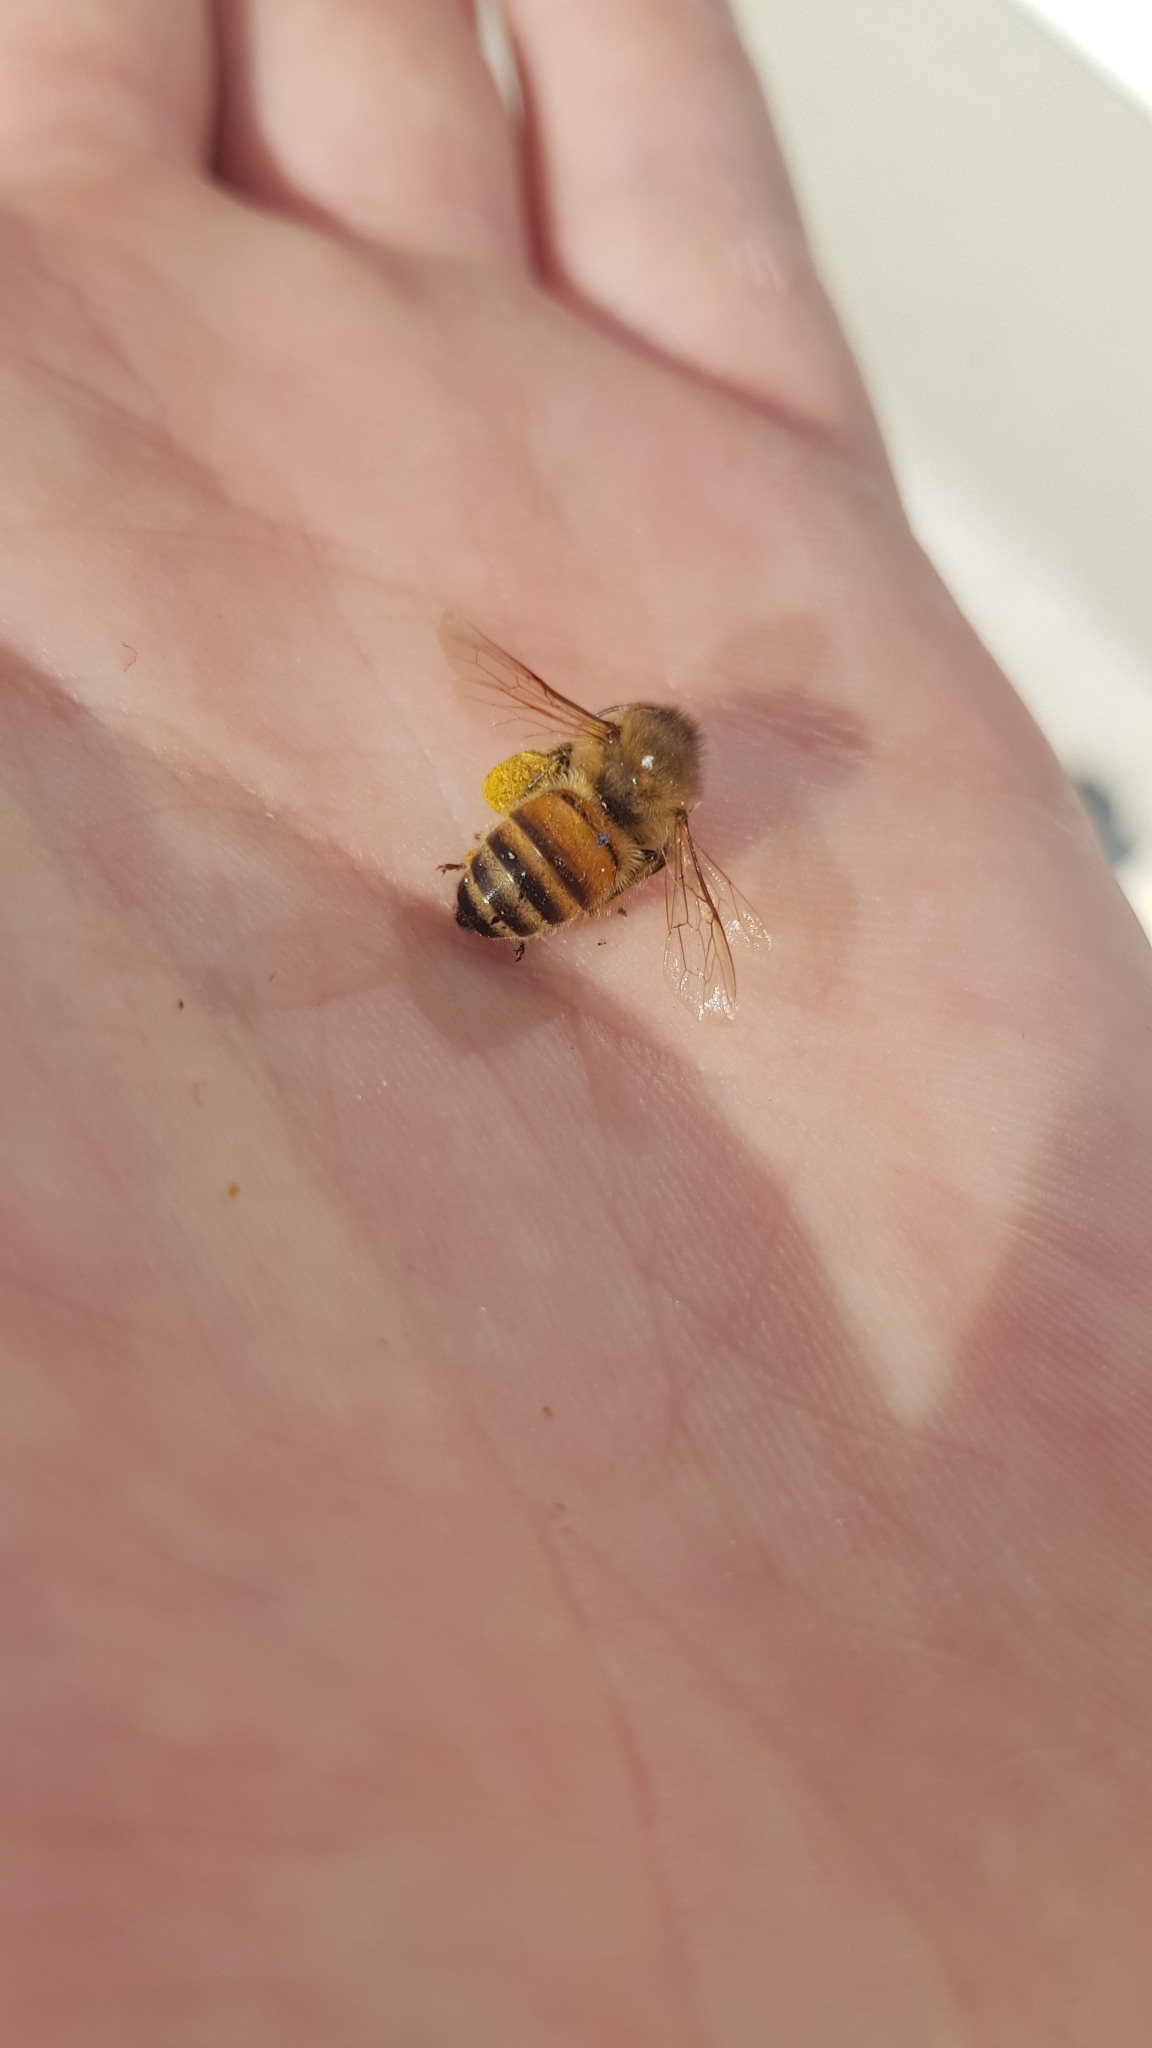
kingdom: Animalia
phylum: Arthropoda
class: Insecta
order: Hymenoptera
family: Apidae
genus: Apis
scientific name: Apis mellifera
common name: Honey bee
